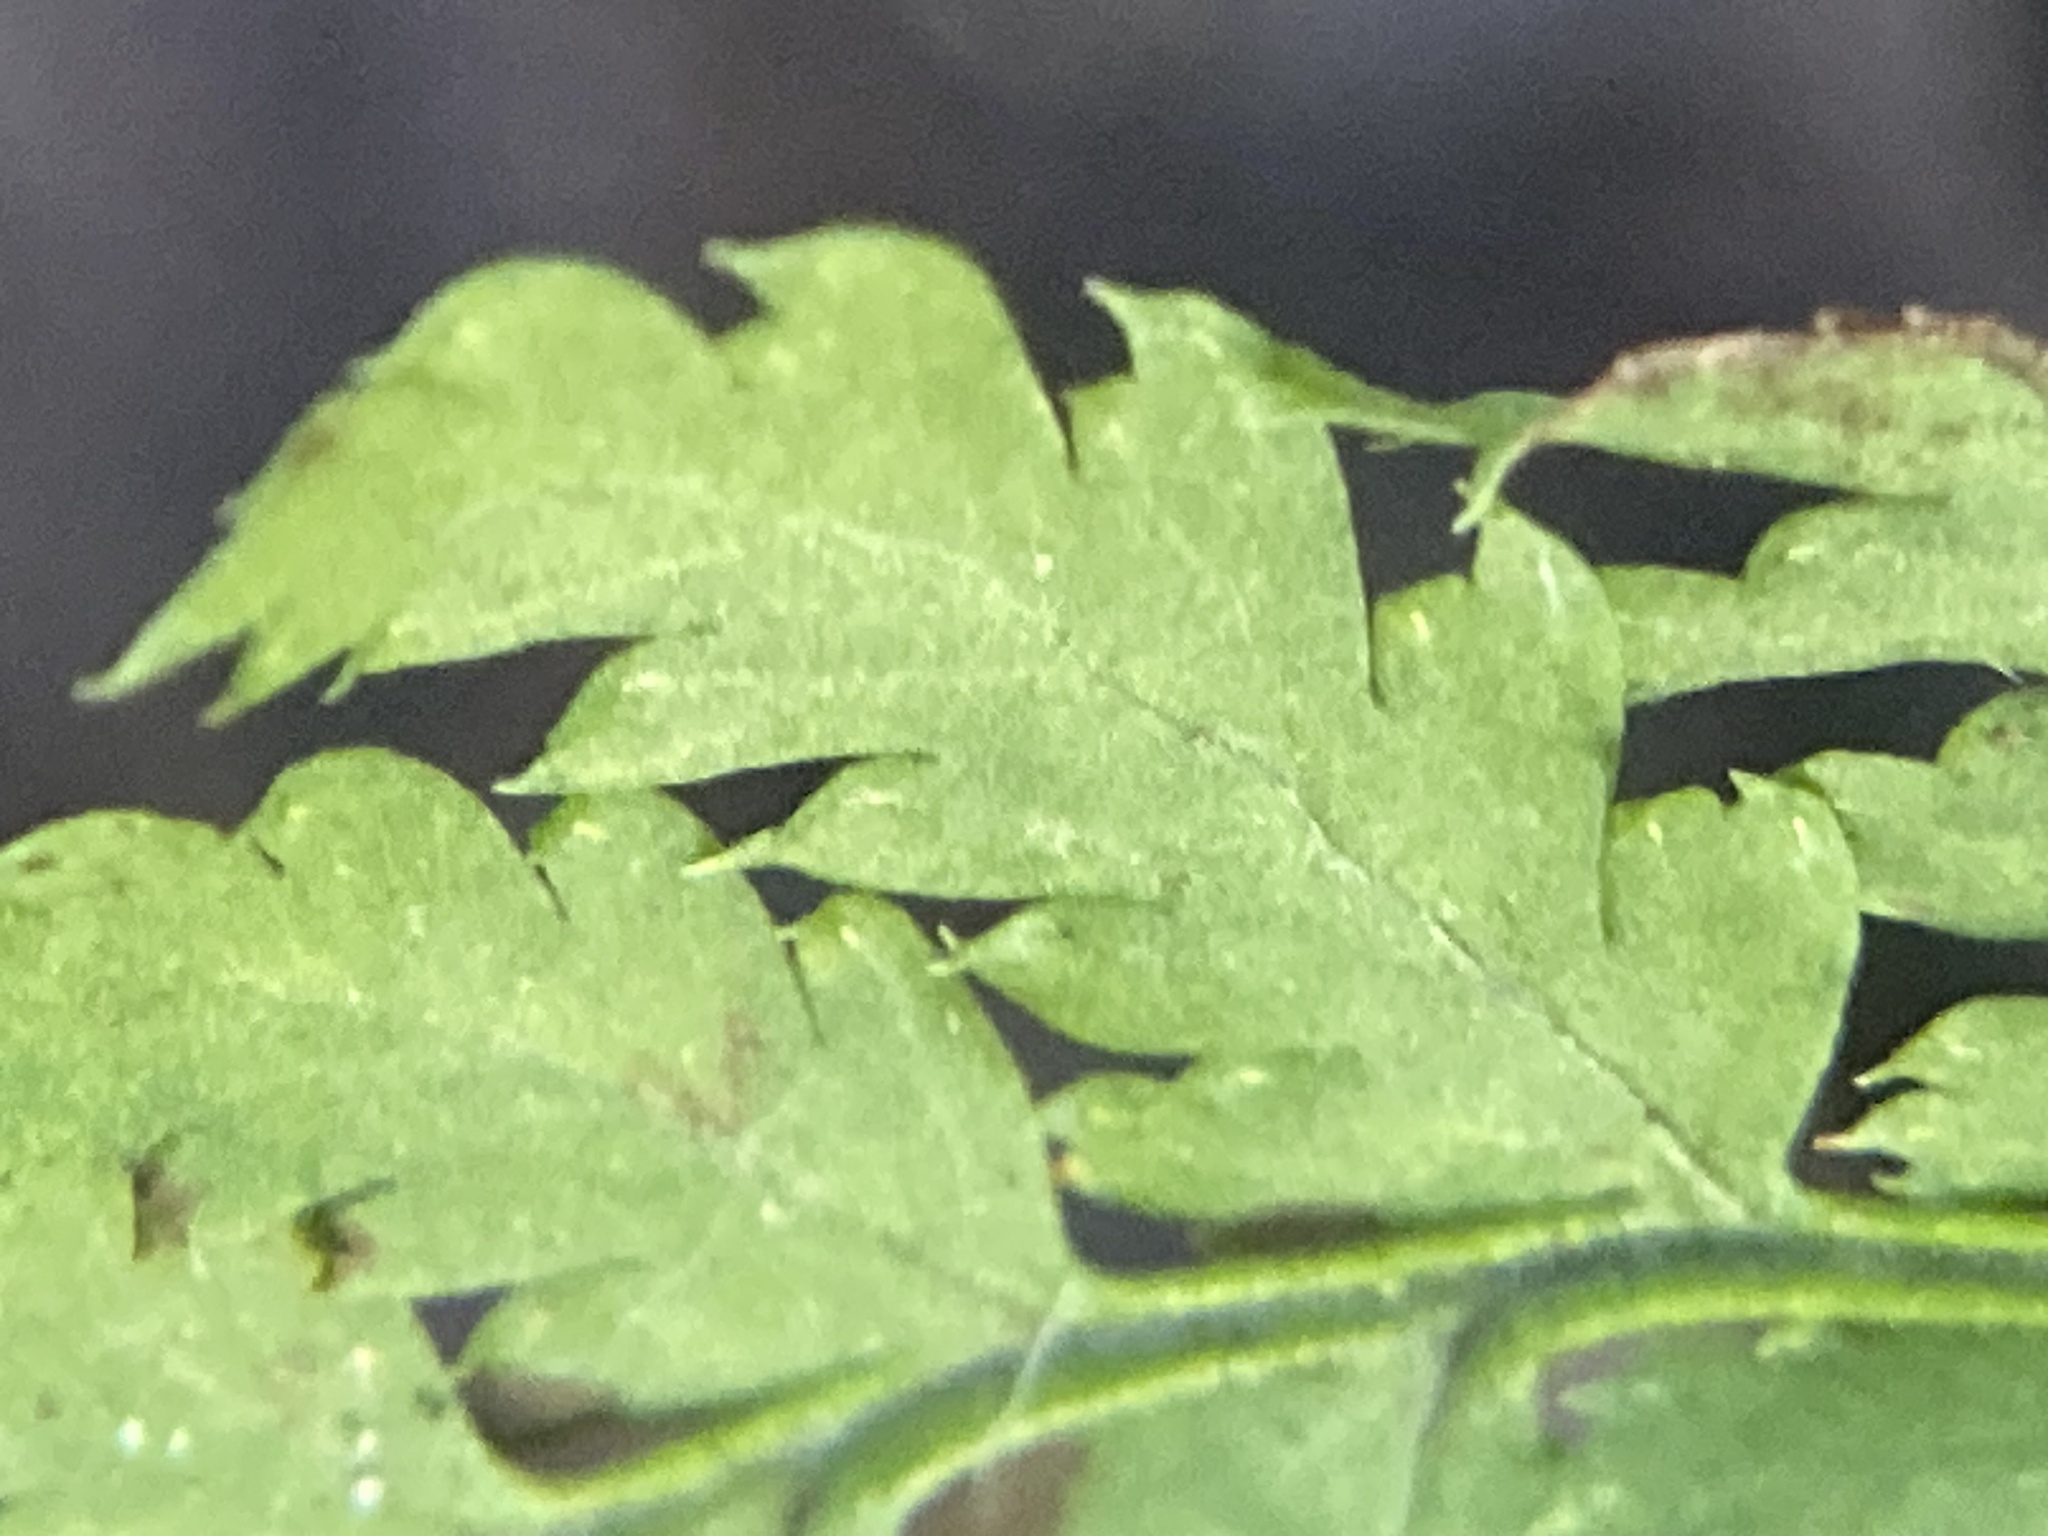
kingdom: Plantae
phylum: Tracheophyta
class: Polypodiopsida
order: Polypodiales
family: Dryopteridaceae
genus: Dryopteris
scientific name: Dryopteris intermedia
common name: Evergreen wood fern
